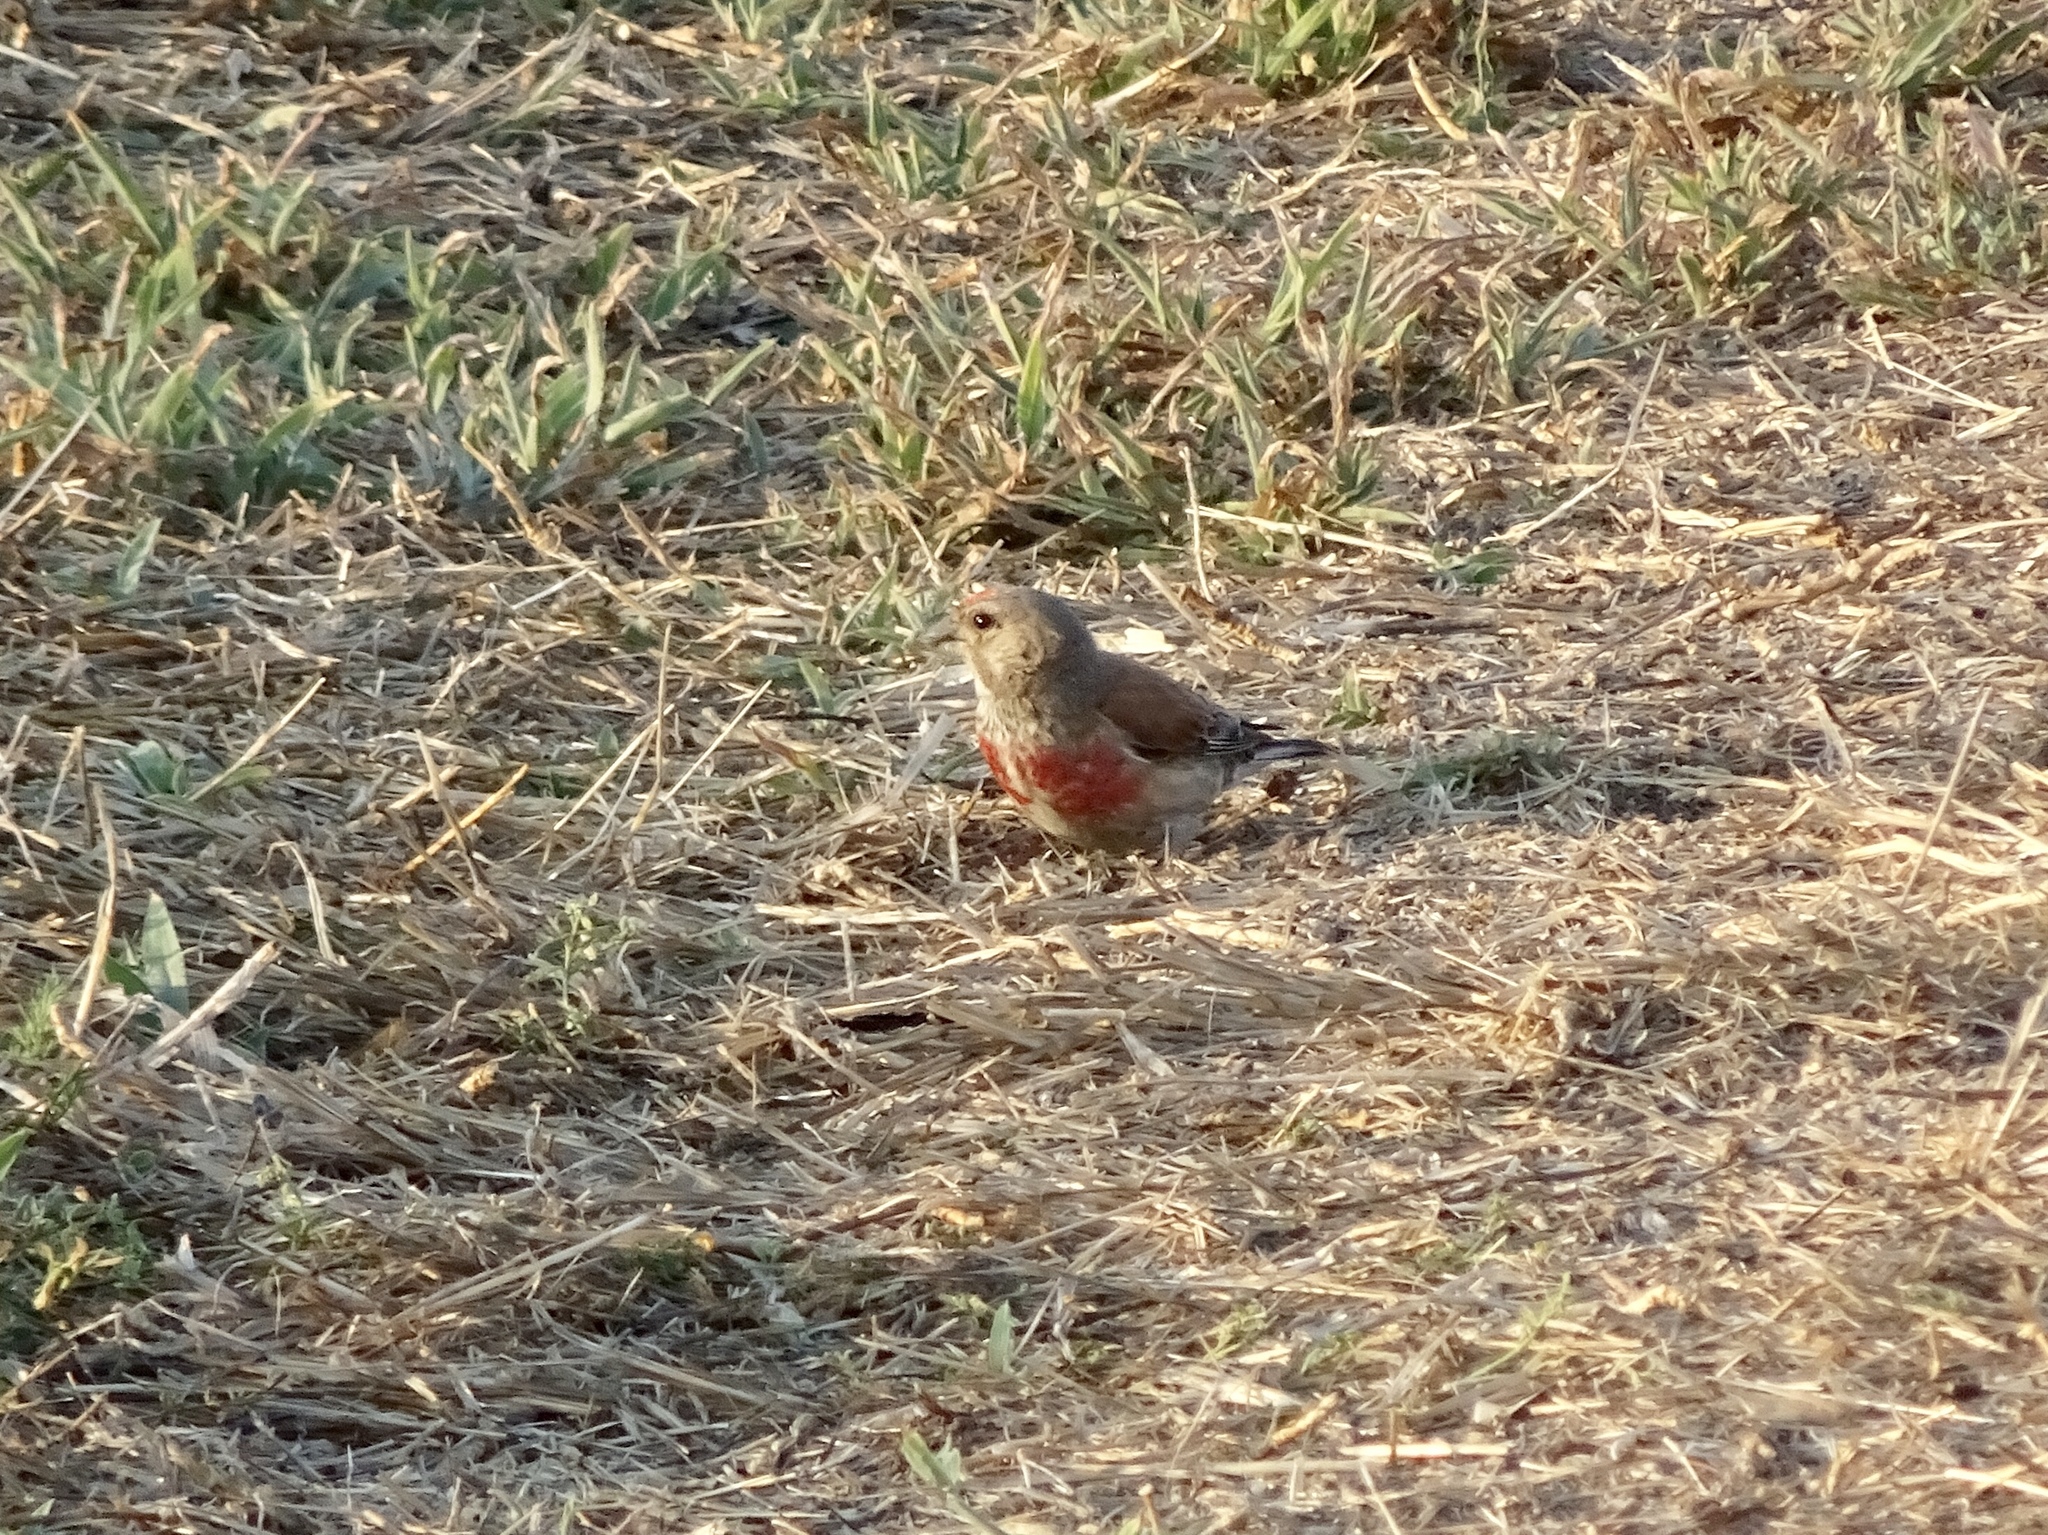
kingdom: Animalia
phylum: Chordata
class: Aves
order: Passeriformes
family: Fringillidae
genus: Linaria
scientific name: Linaria cannabina
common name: Common linnet
